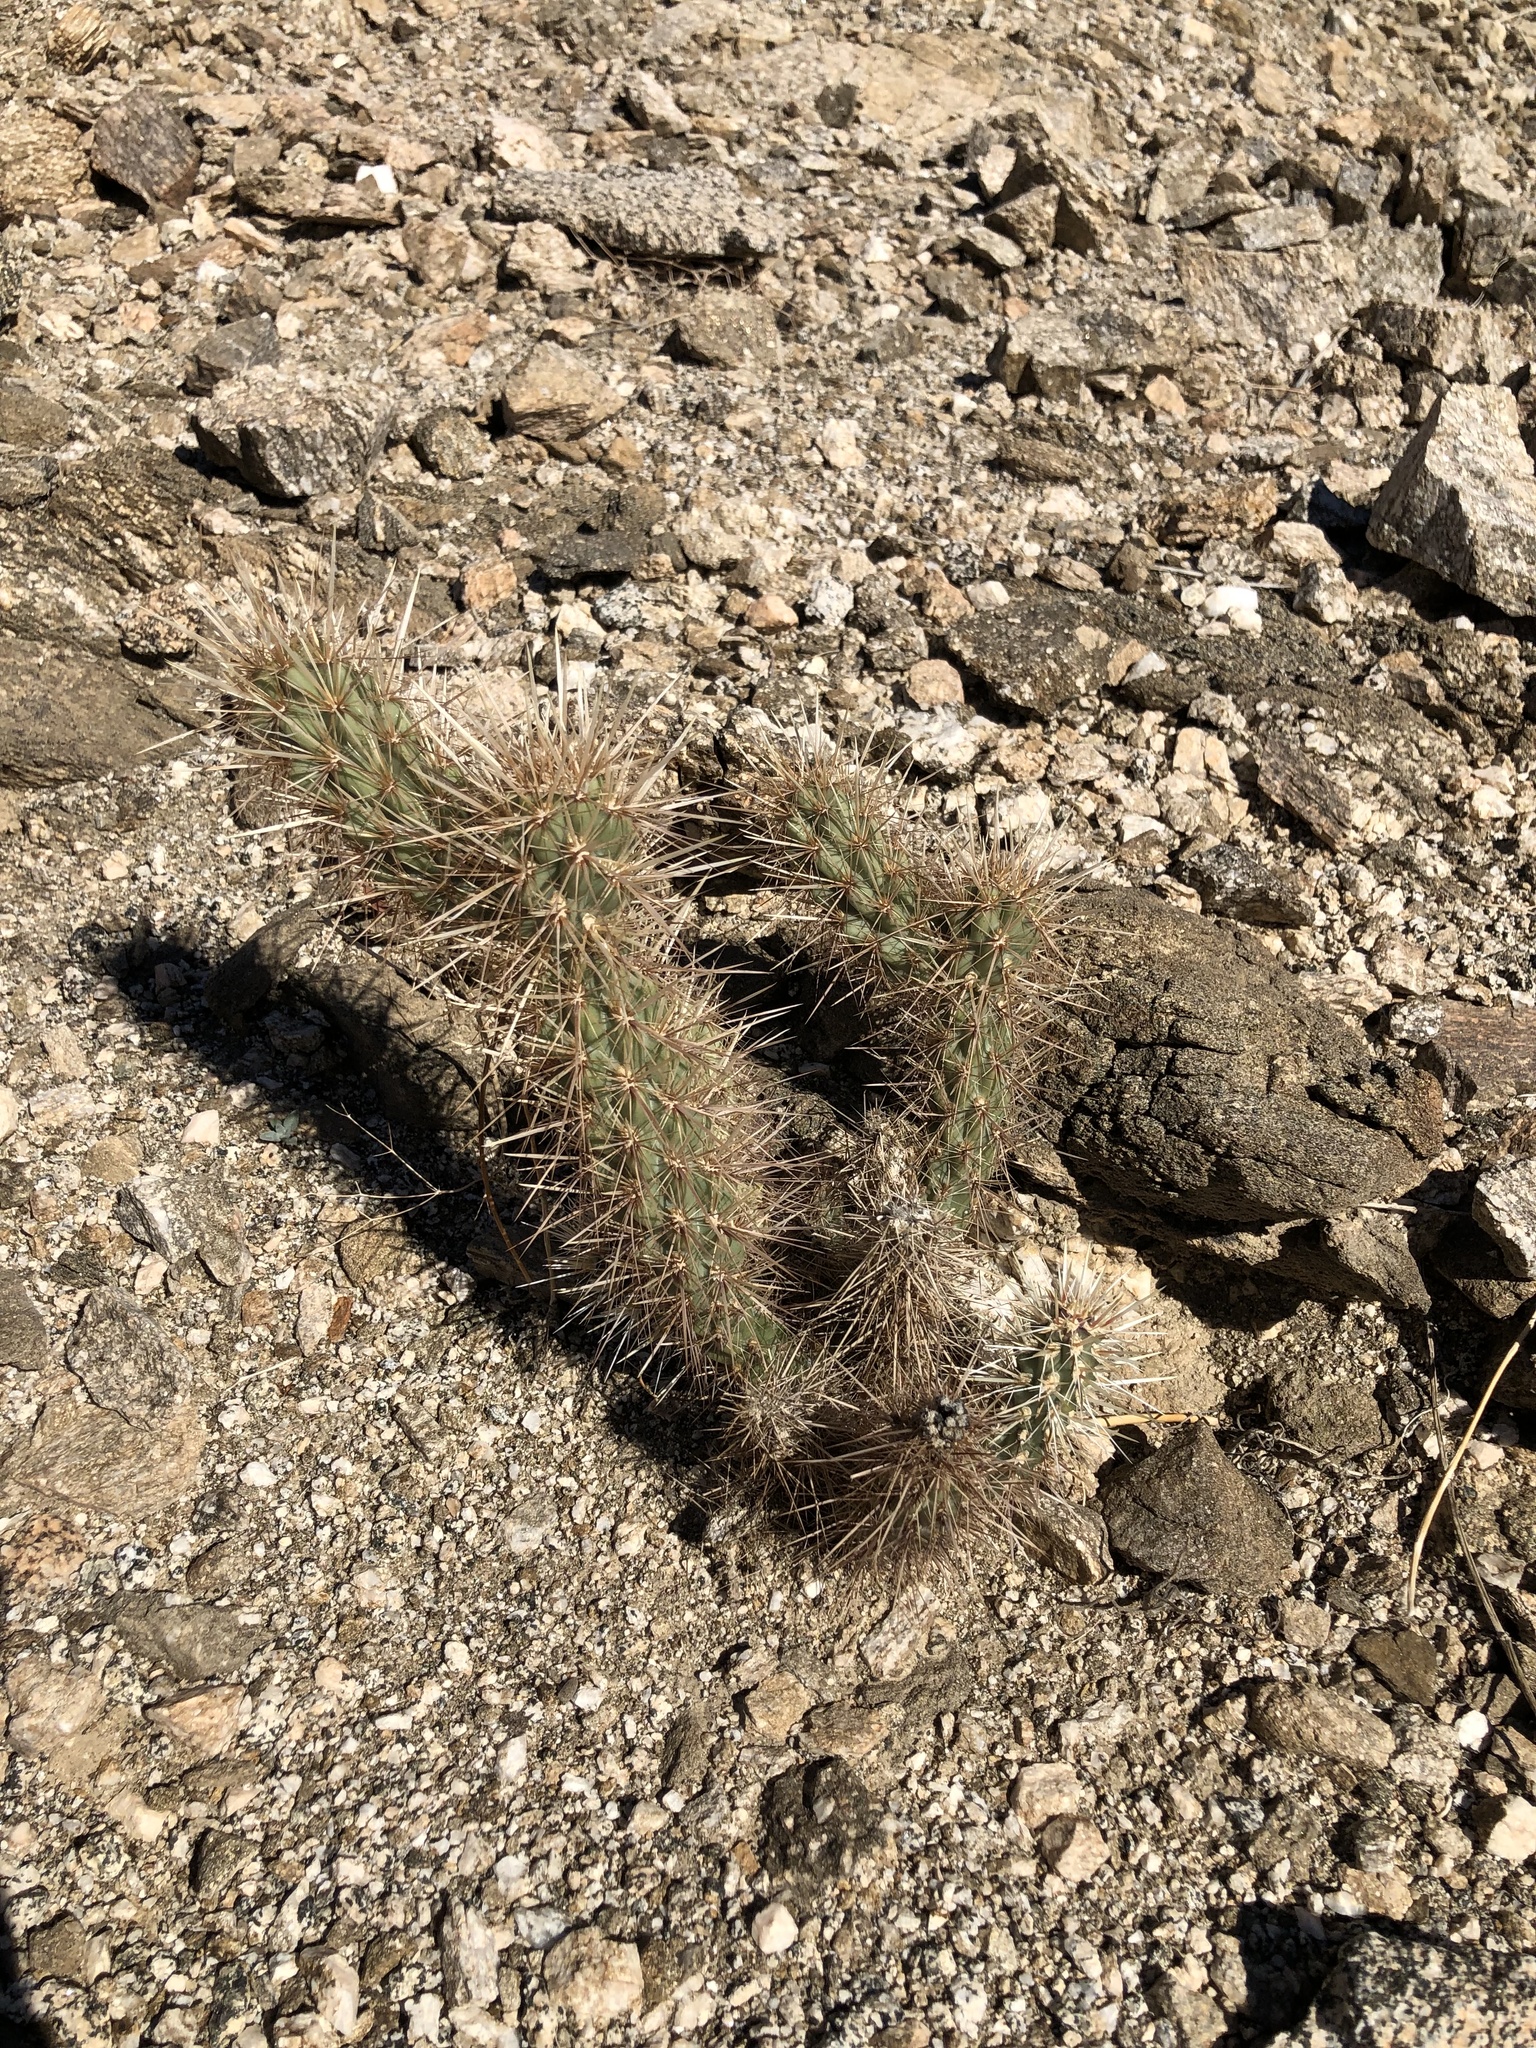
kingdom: Plantae
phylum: Tracheophyta
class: Magnoliopsida
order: Caryophyllales
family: Cactaceae
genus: Cylindropuntia
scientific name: Cylindropuntia ganderi
